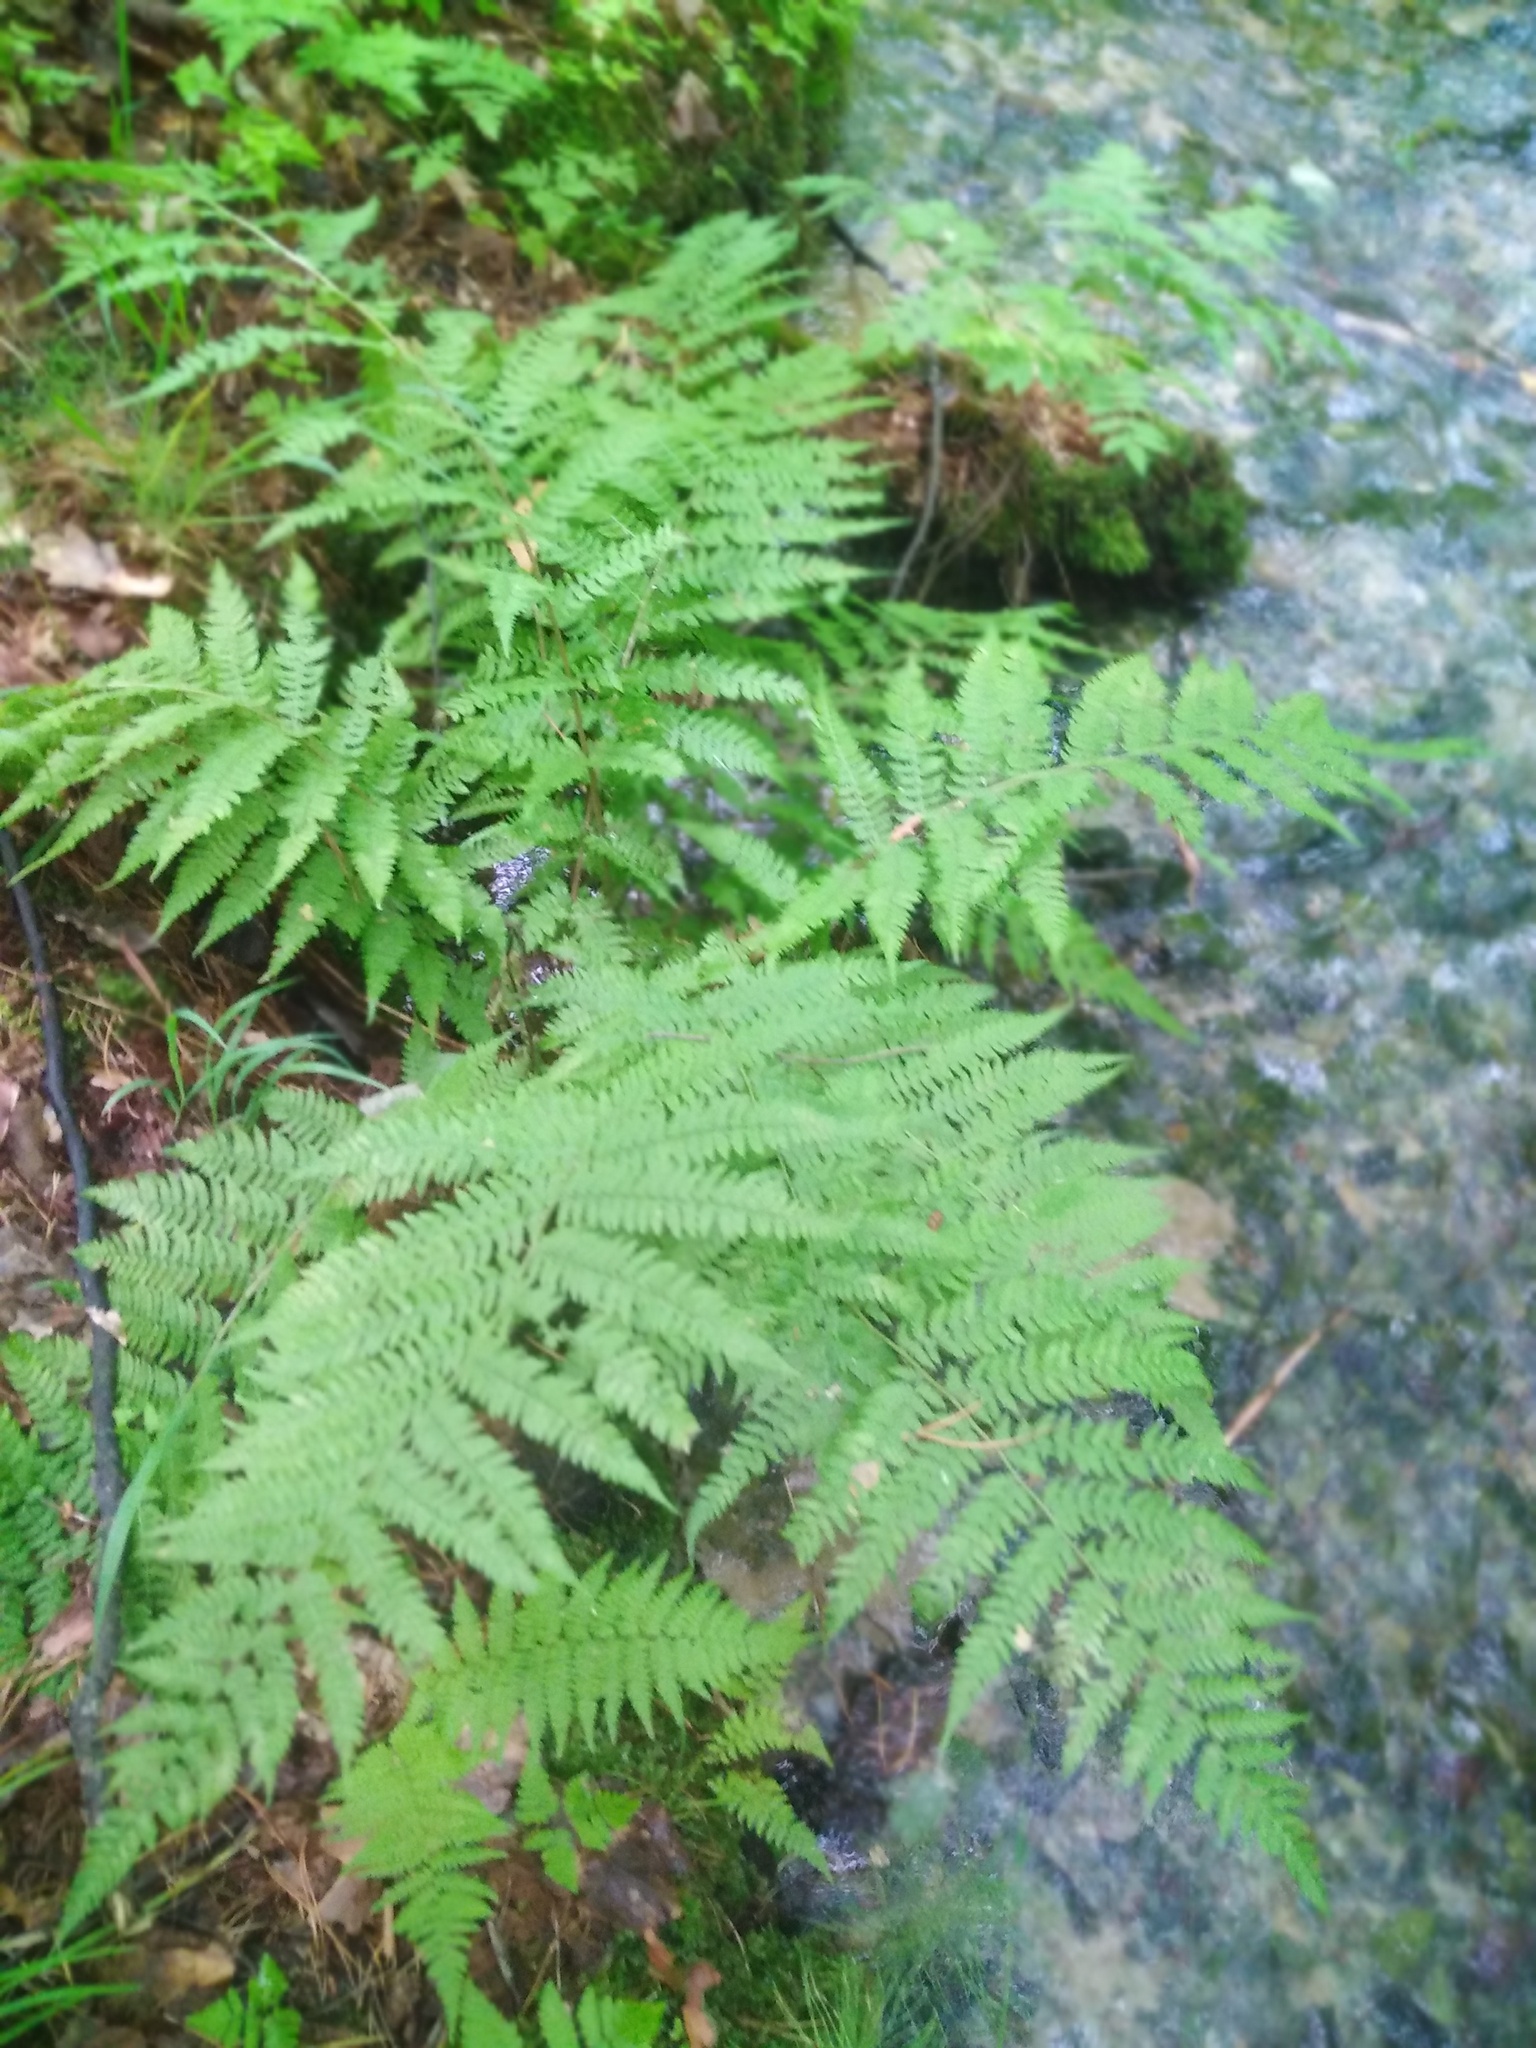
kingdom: Plantae
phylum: Tracheophyta
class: Polypodiopsida
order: Polypodiales
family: Athyriaceae
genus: Athyrium
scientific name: Athyrium filix-femina
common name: Lady fern
